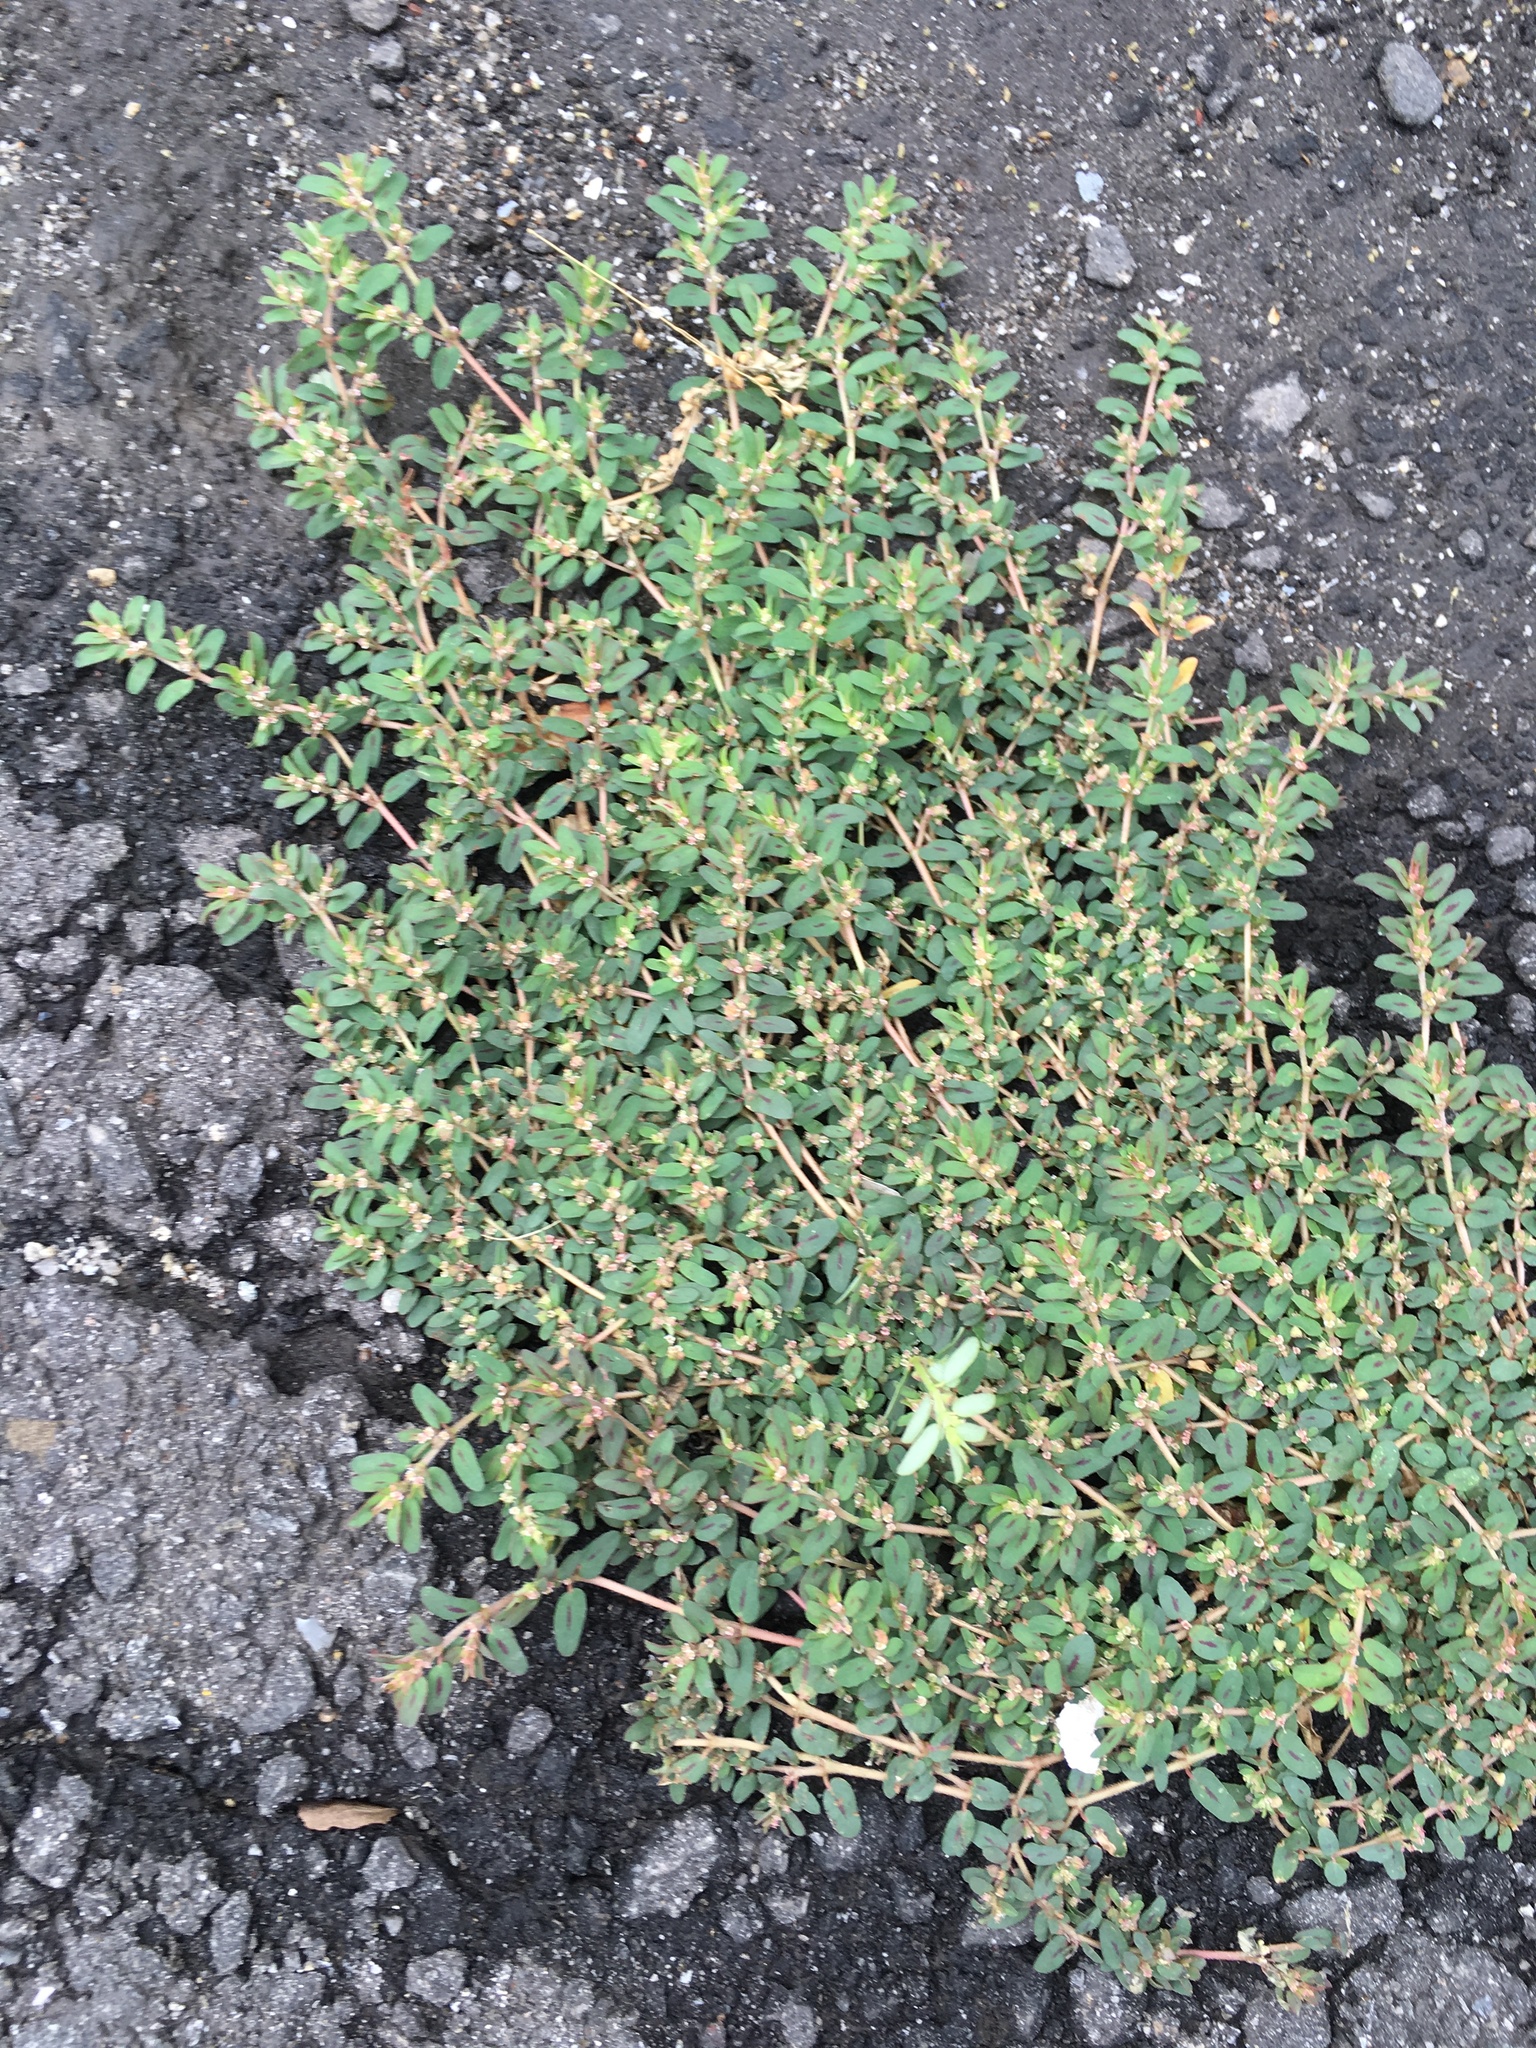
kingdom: Plantae
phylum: Tracheophyta
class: Magnoliopsida
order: Malpighiales
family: Euphorbiaceae
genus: Euphorbia
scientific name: Euphorbia maculata
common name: Spotted spurge
